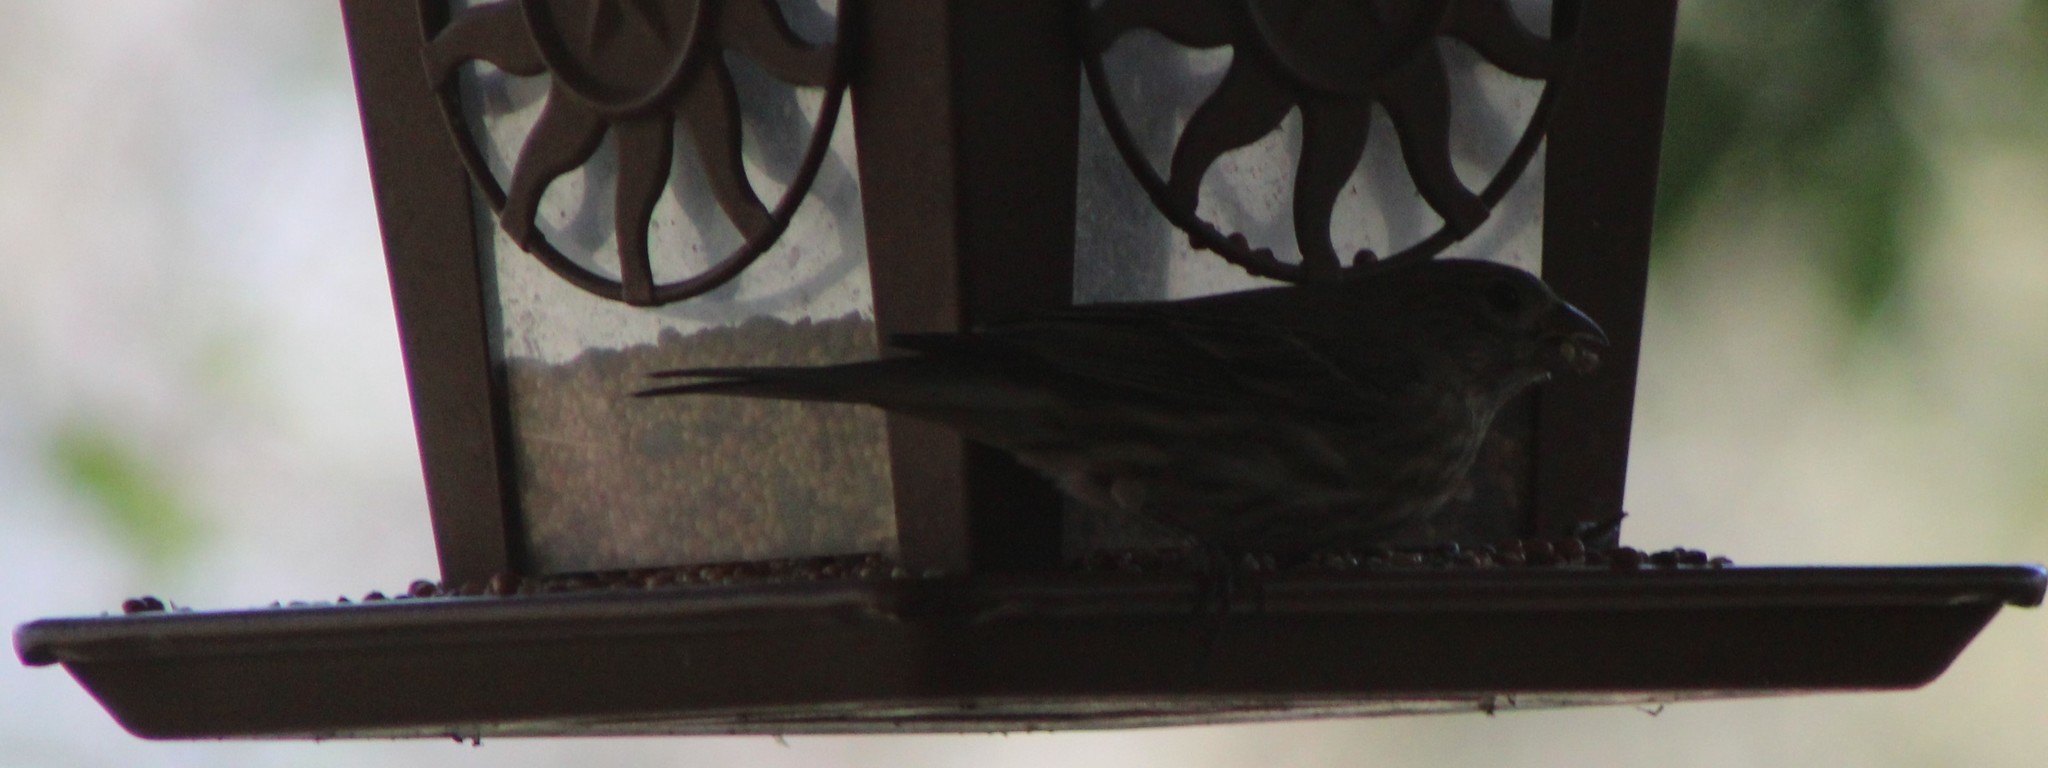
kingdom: Animalia
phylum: Chordata
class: Aves
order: Passeriformes
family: Fringillidae
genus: Haemorhous
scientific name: Haemorhous mexicanus
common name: House finch
